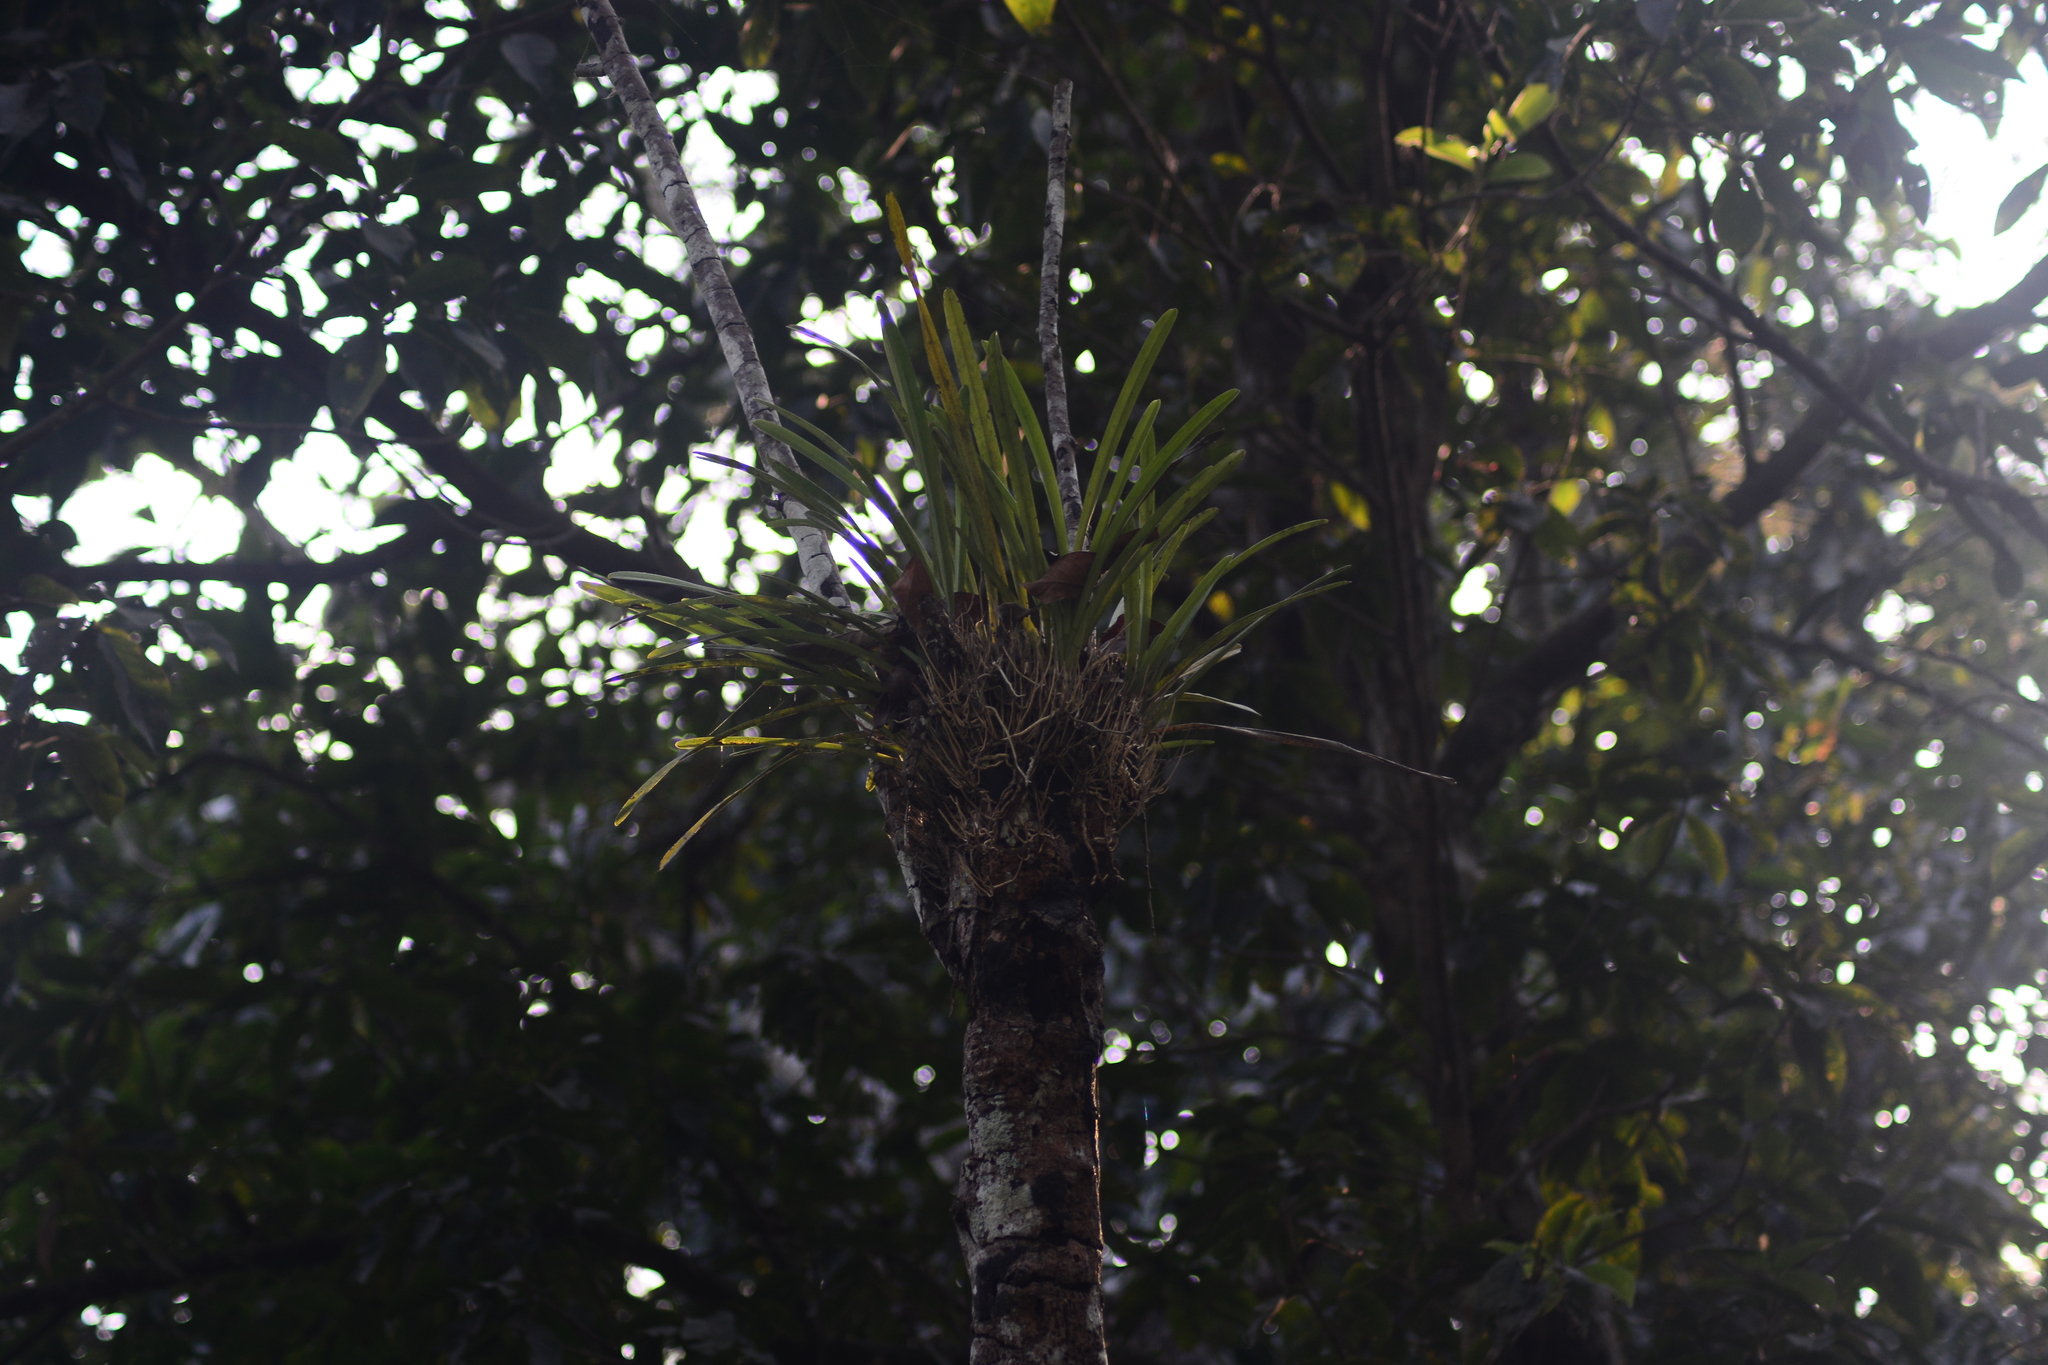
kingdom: Plantae
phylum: Tracheophyta
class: Liliopsida
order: Asparagales
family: Orchidaceae
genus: Cymbidium
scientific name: Cymbidium aloifolium
